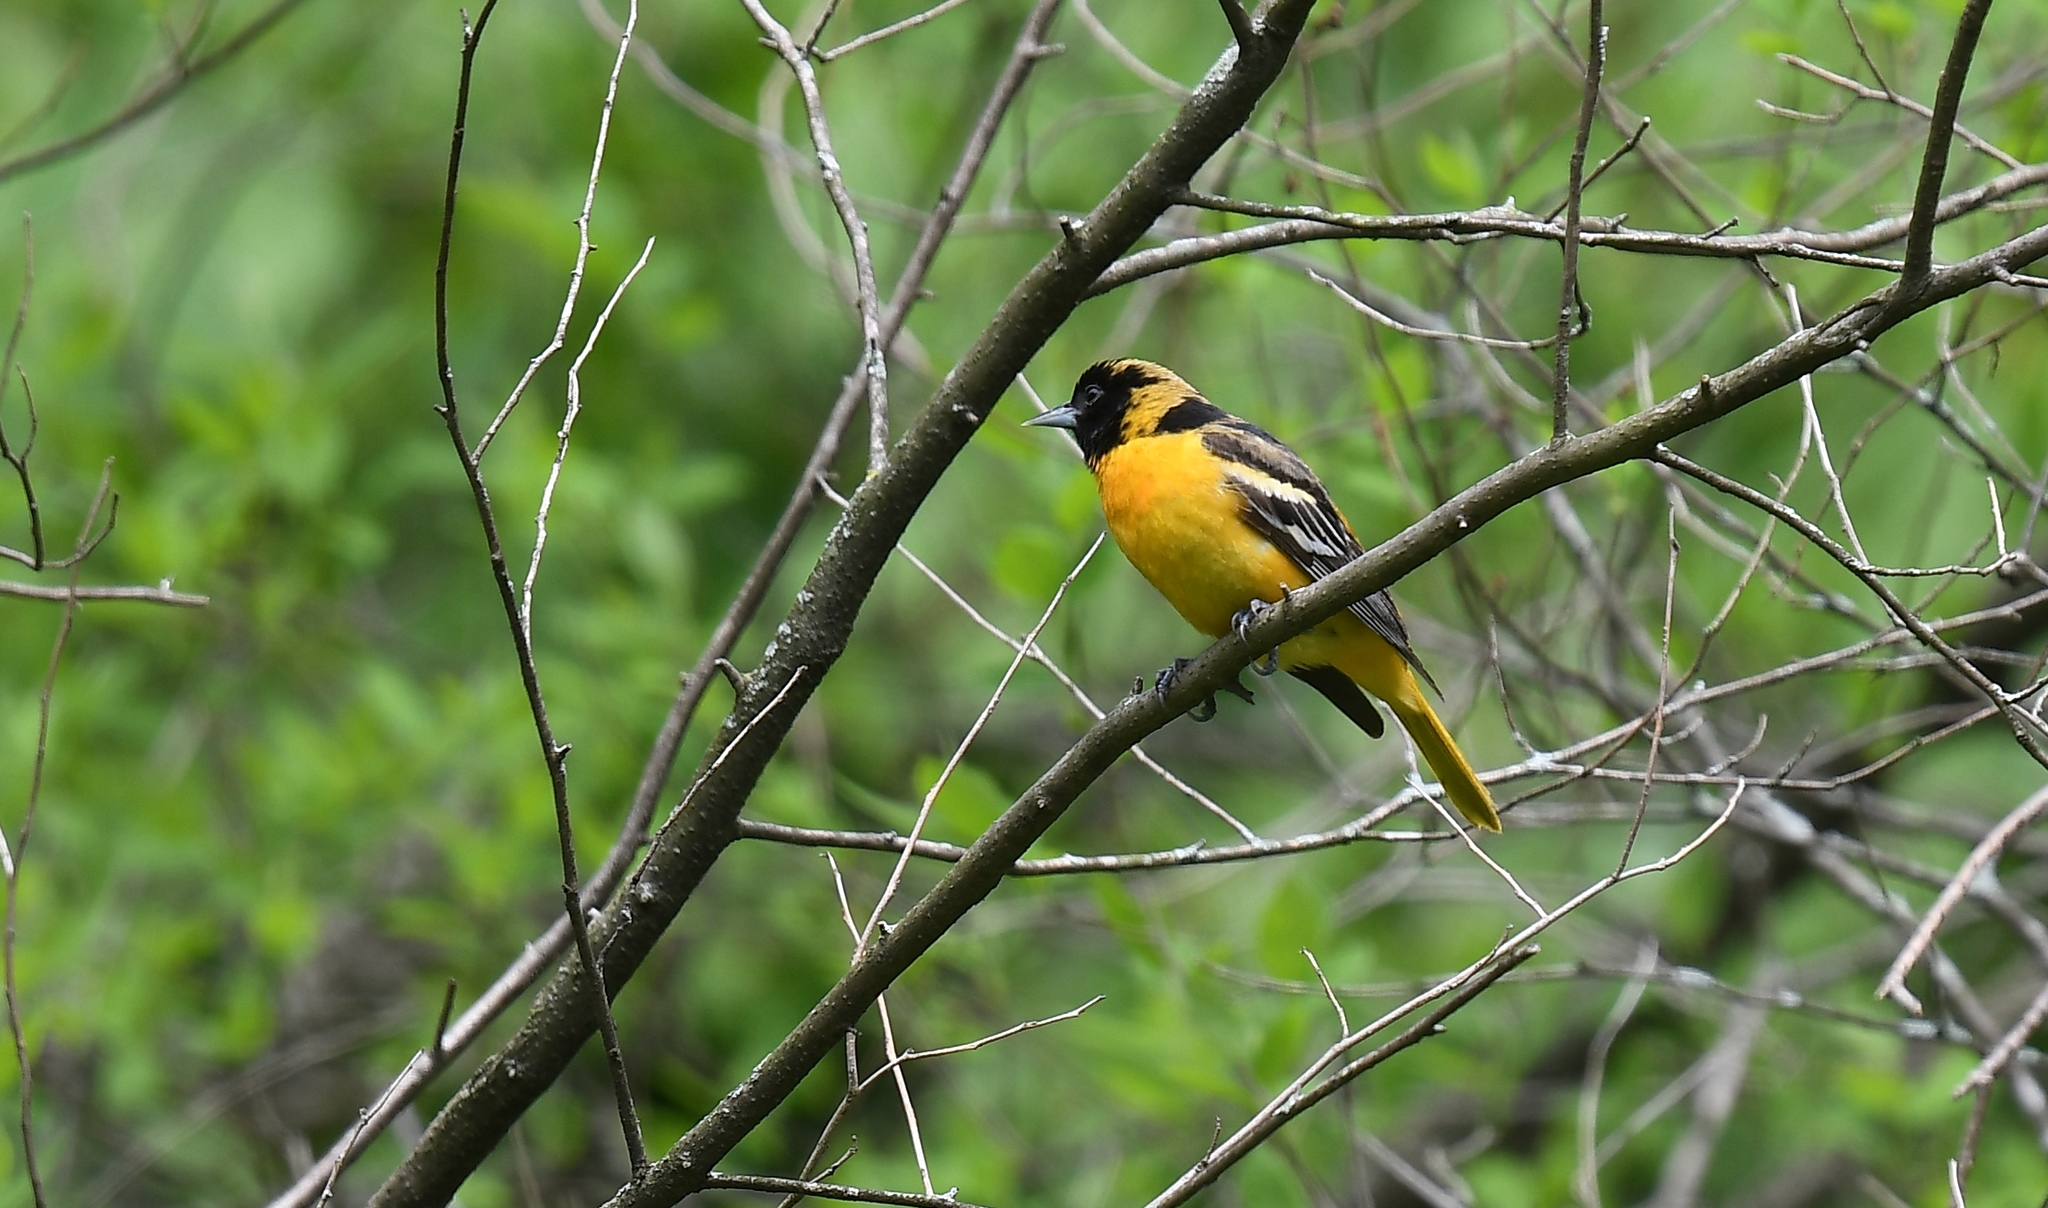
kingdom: Animalia
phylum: Chordata
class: Aves
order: Passeriformes
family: Icteridae
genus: Icterus
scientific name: Icterus galbula
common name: Baltimore oriole
